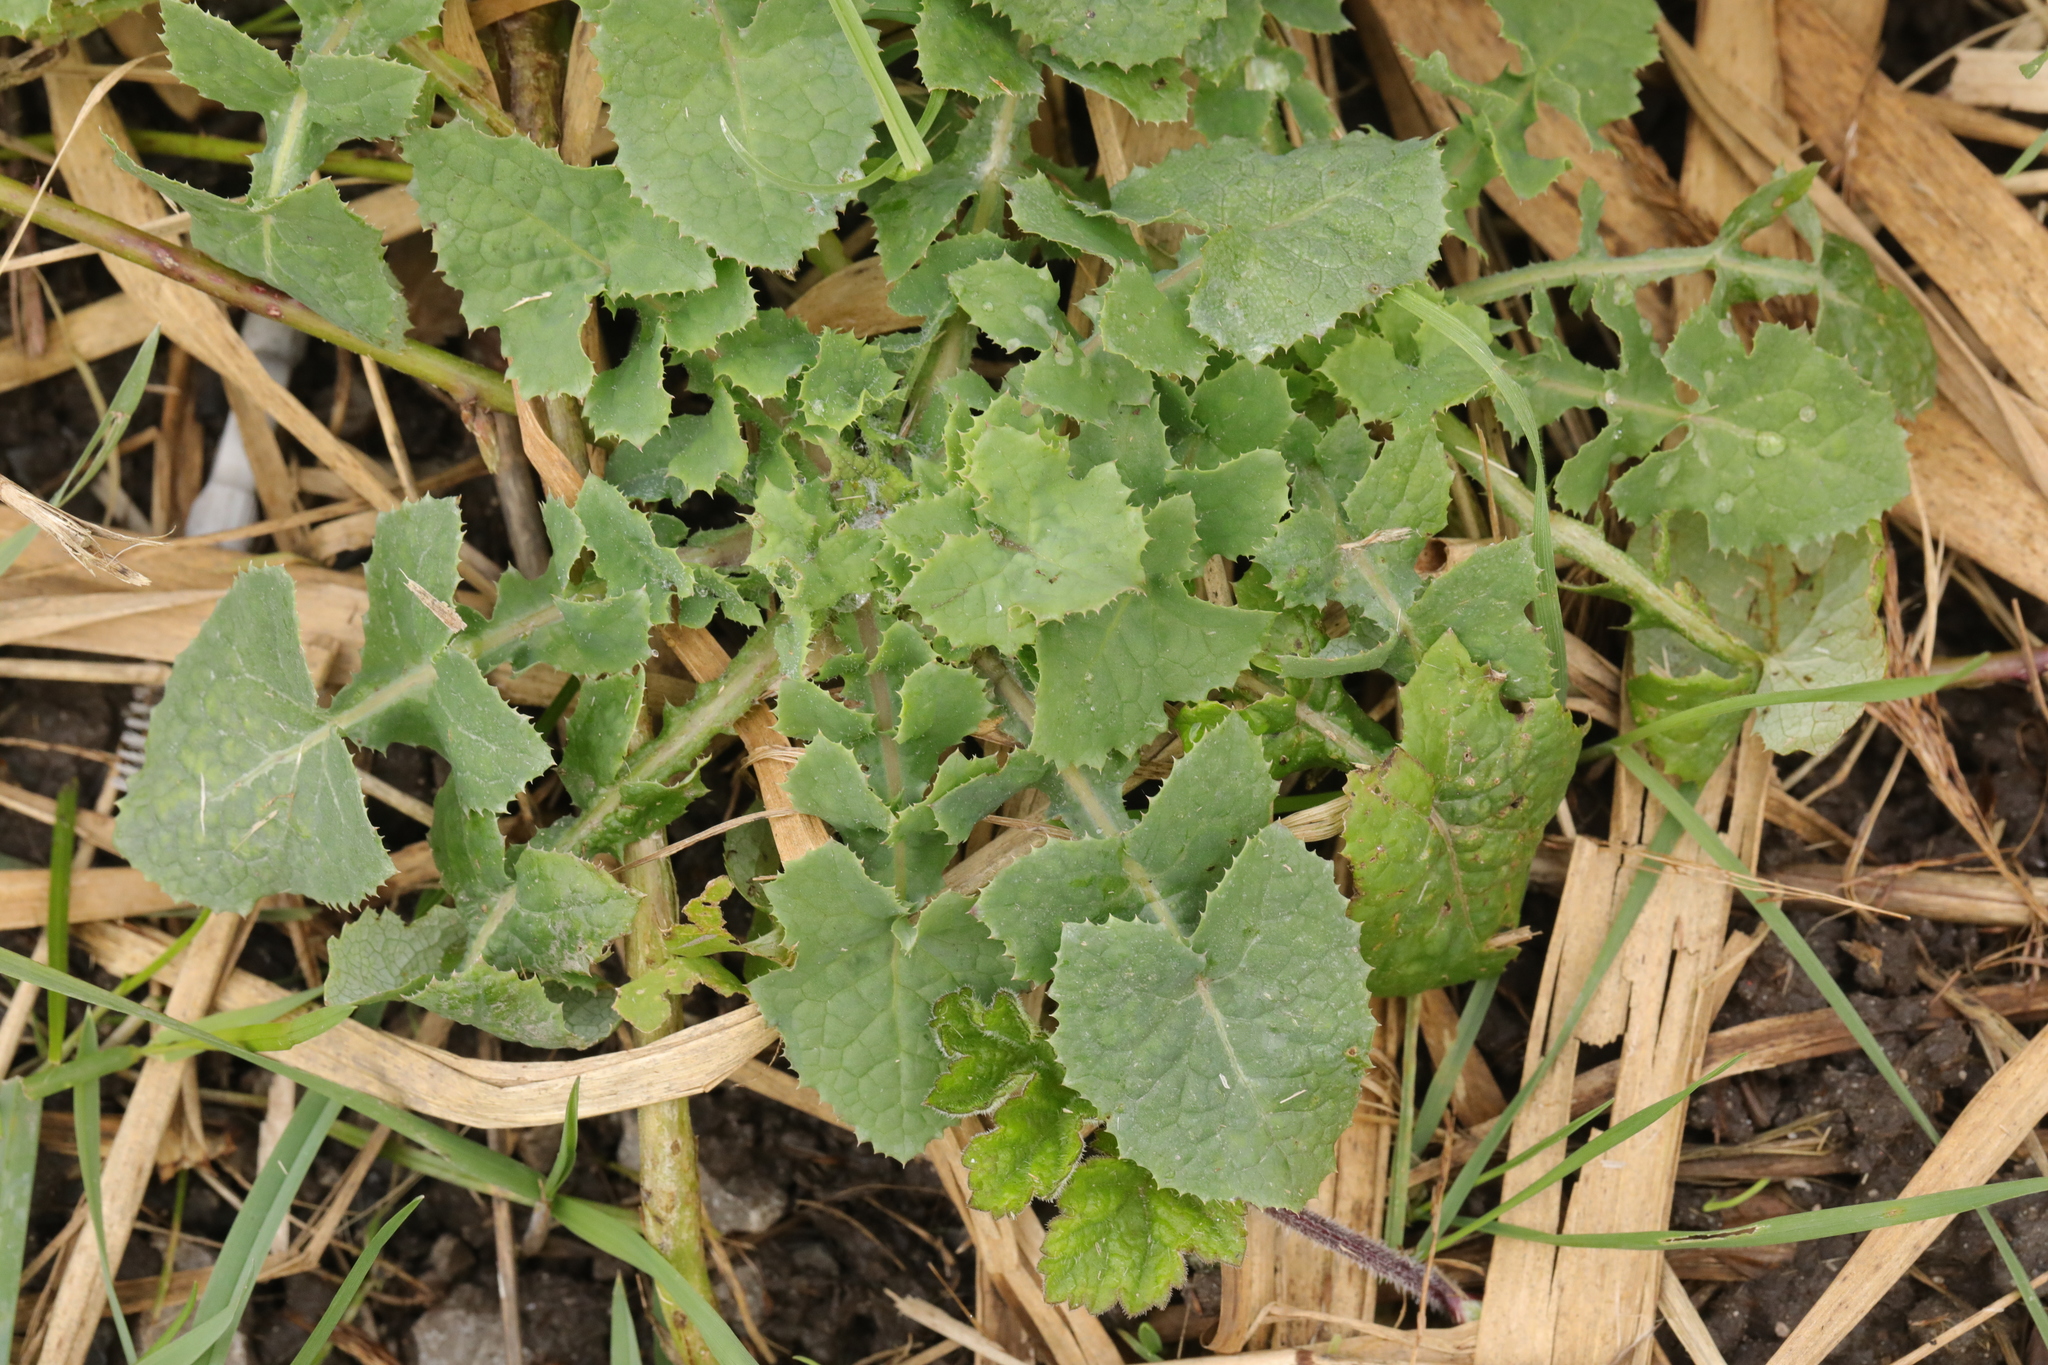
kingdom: Plantae
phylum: Tracheophyta
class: Magnoliopsida
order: Asterales
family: Asteraceae
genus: Sonchus
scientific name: Sonchus oleraceus
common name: Common sowthistle
